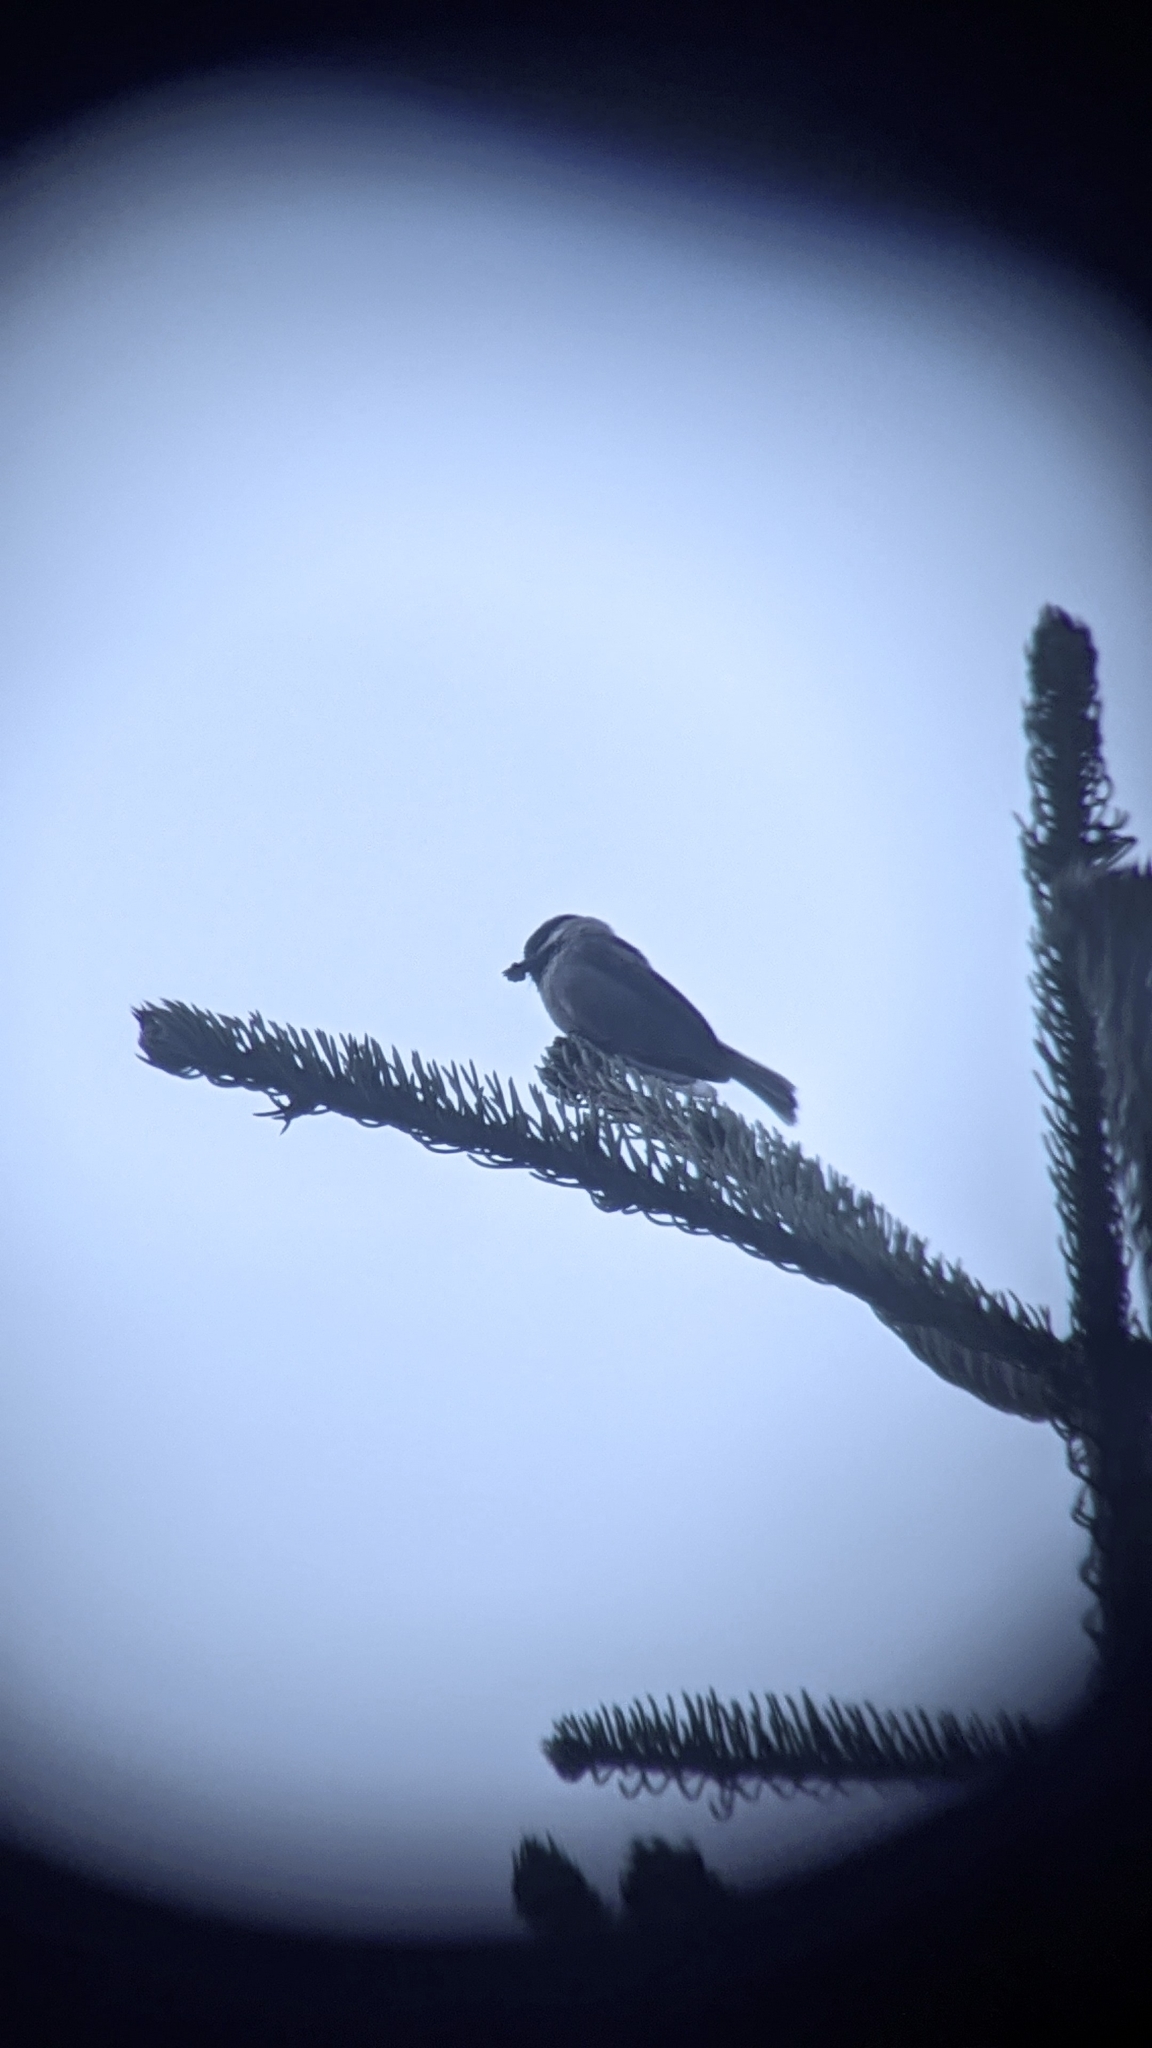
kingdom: Animalia
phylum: Chordata
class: Aves
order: Passeriformes
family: Paridae
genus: Poecile
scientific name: Poecile gambeli
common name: Mountain chickadee
